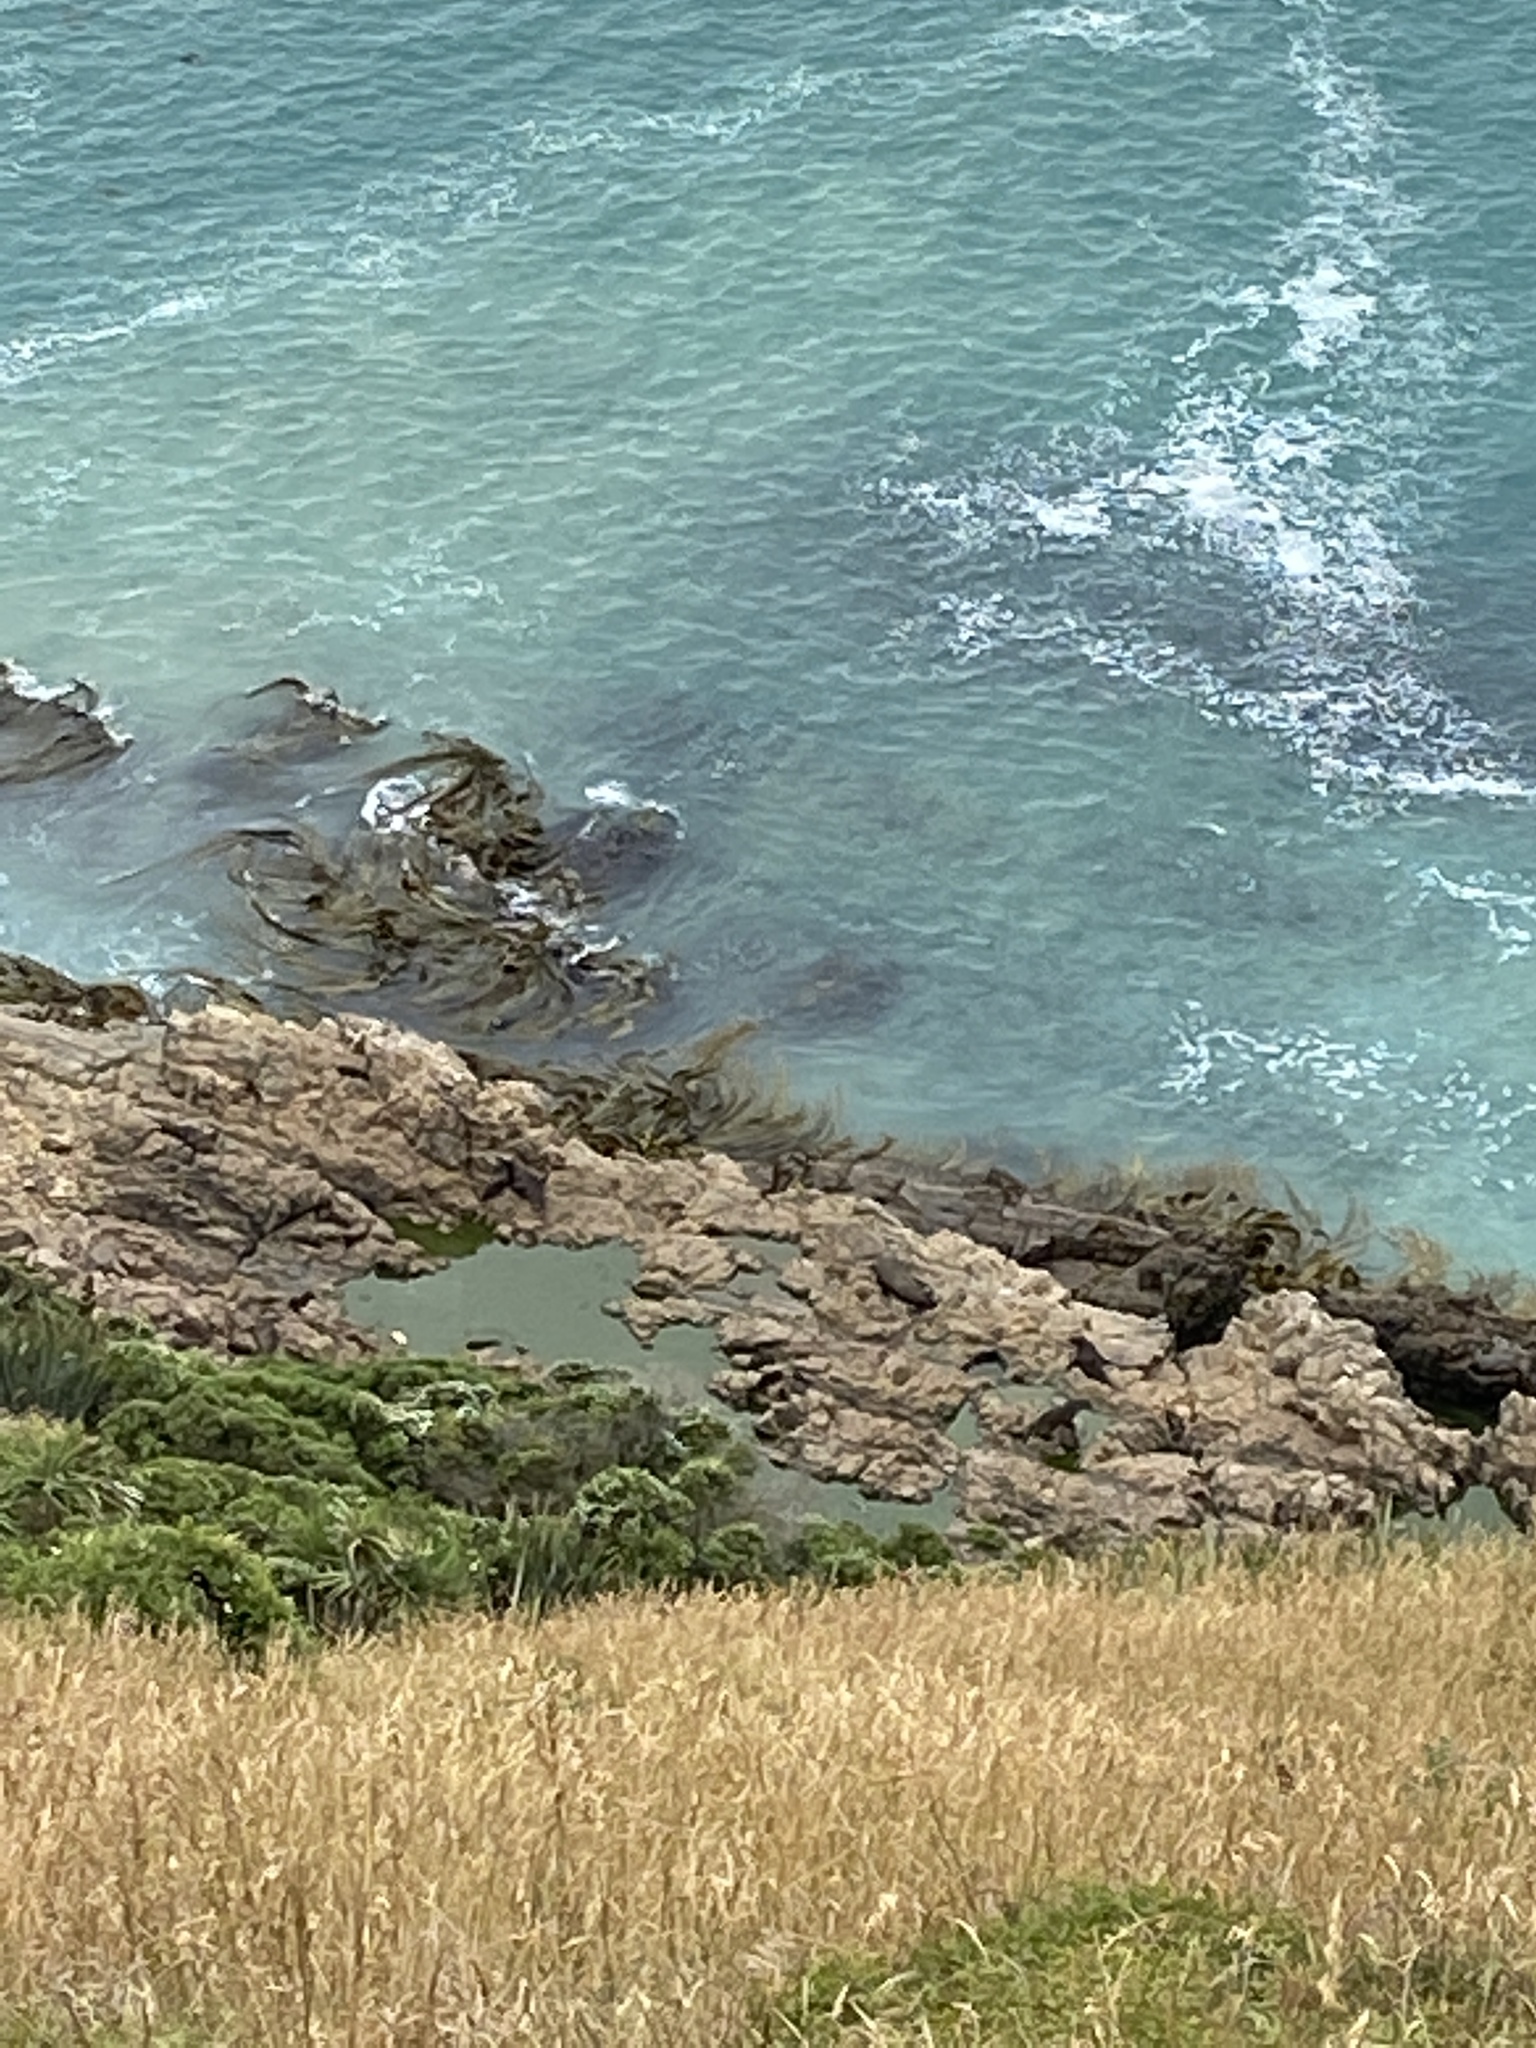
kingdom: Animalia
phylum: Chordata
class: Mammalia
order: Carnivora
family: Otariidae
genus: Arctocephalus
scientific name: Arctocephalus forsteri
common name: New zealand fur seal
